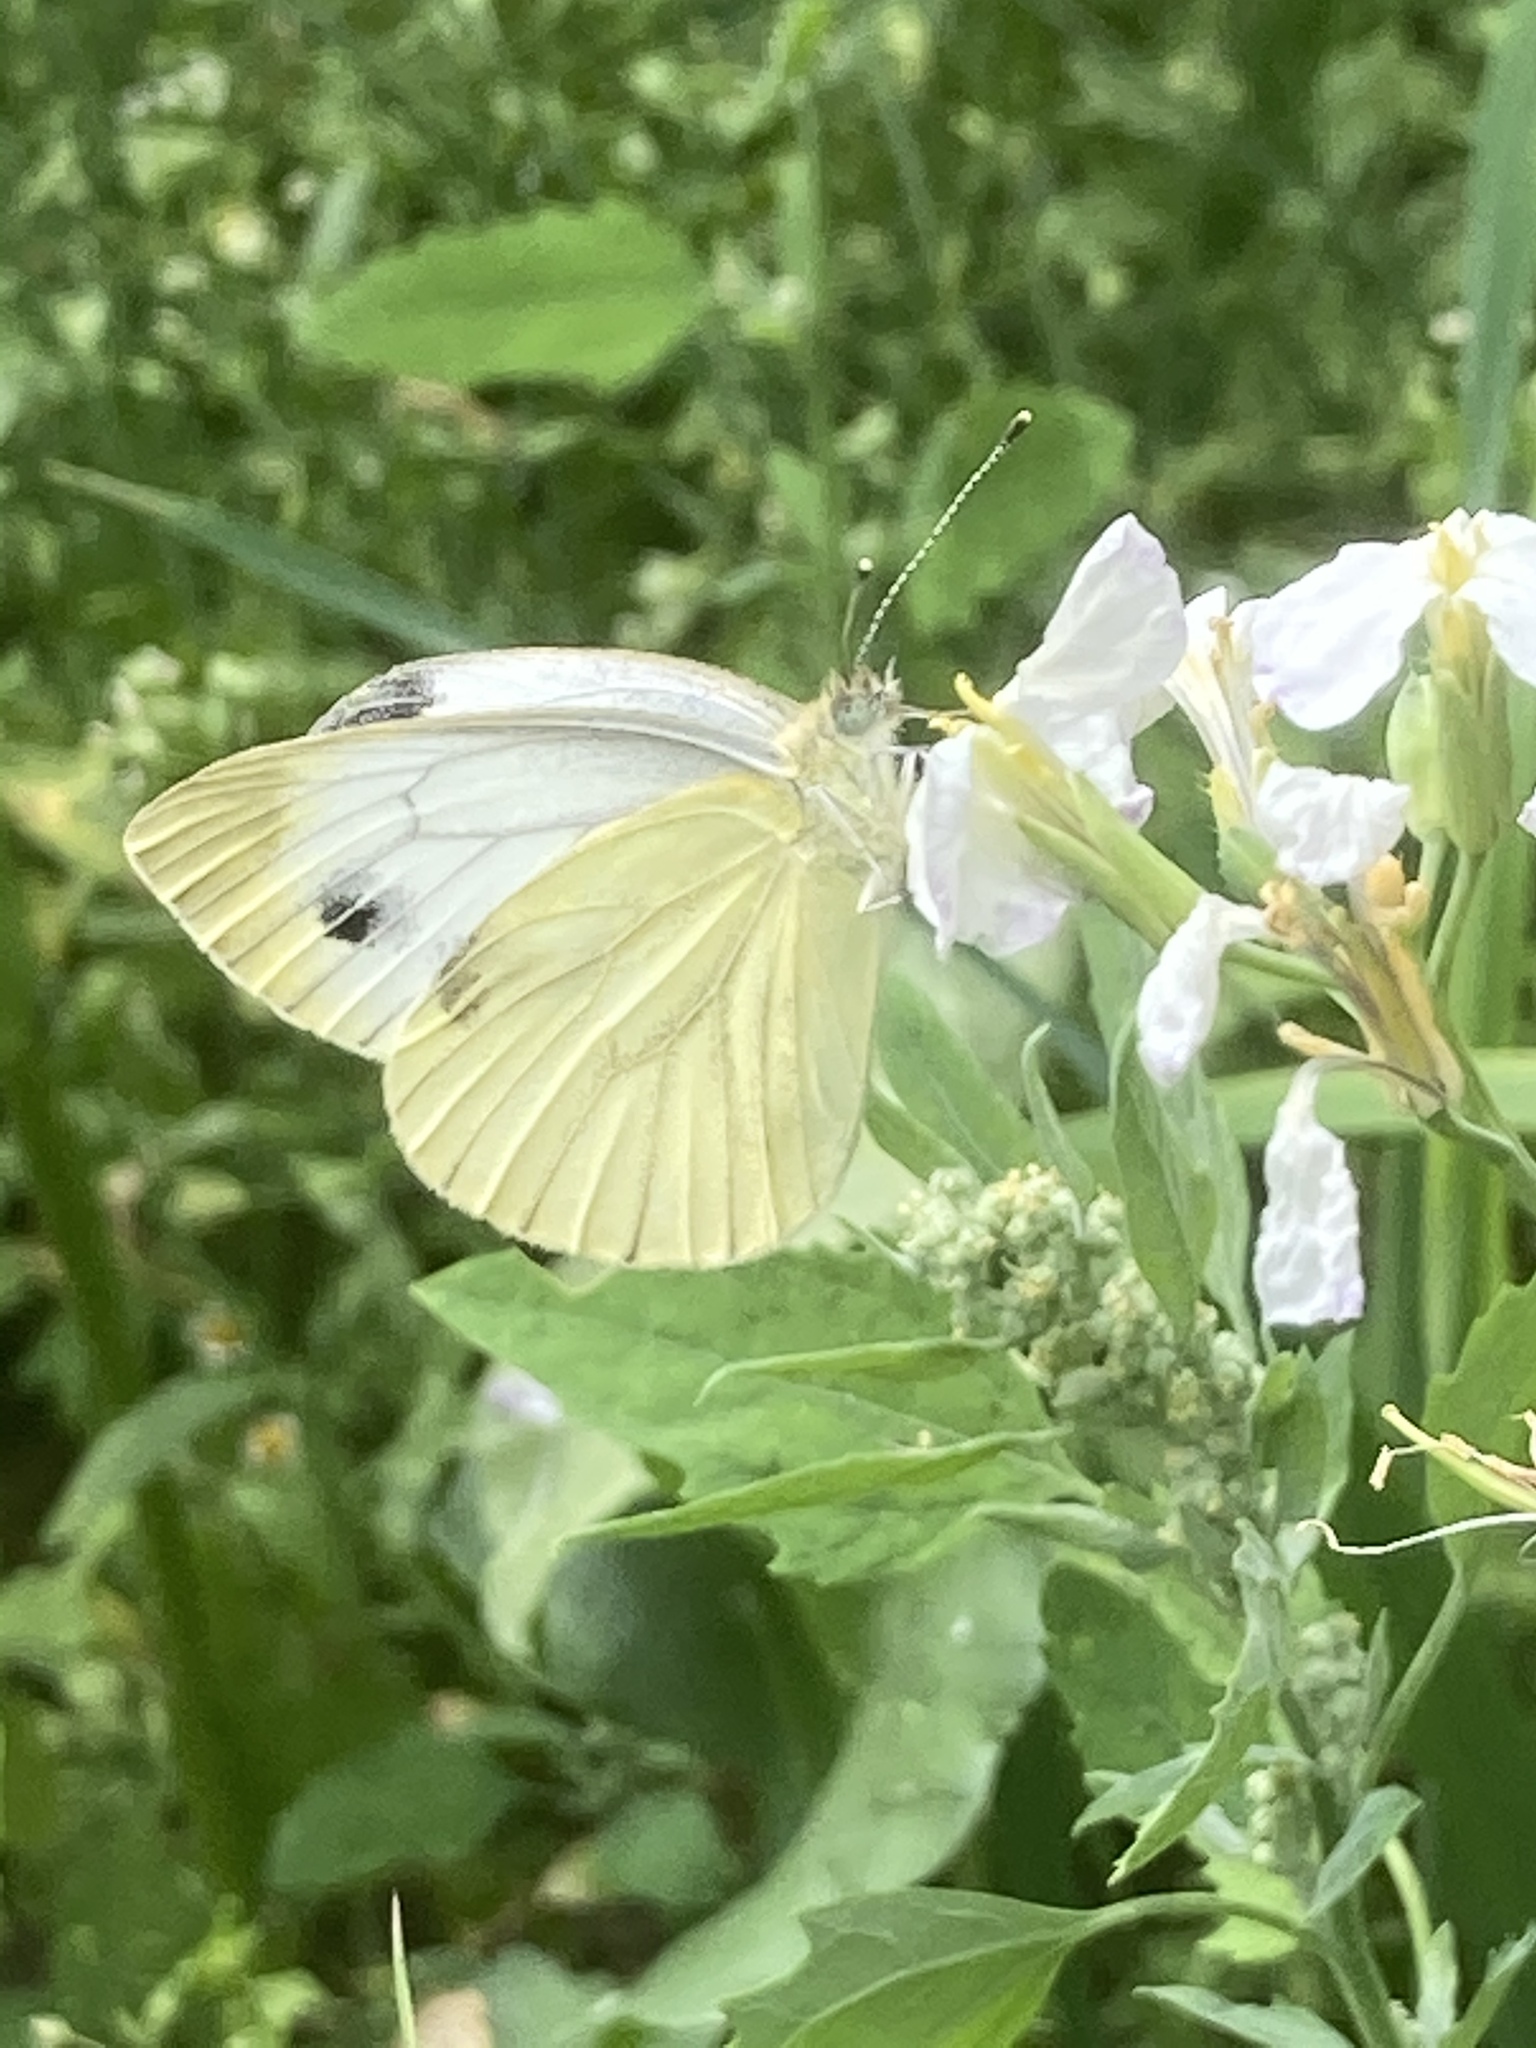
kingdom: Animalia
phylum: Arthropoda
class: Insecta
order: Lepidoptera
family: Pieridae
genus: Pieris
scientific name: Pieris napi
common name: Green-veined white
